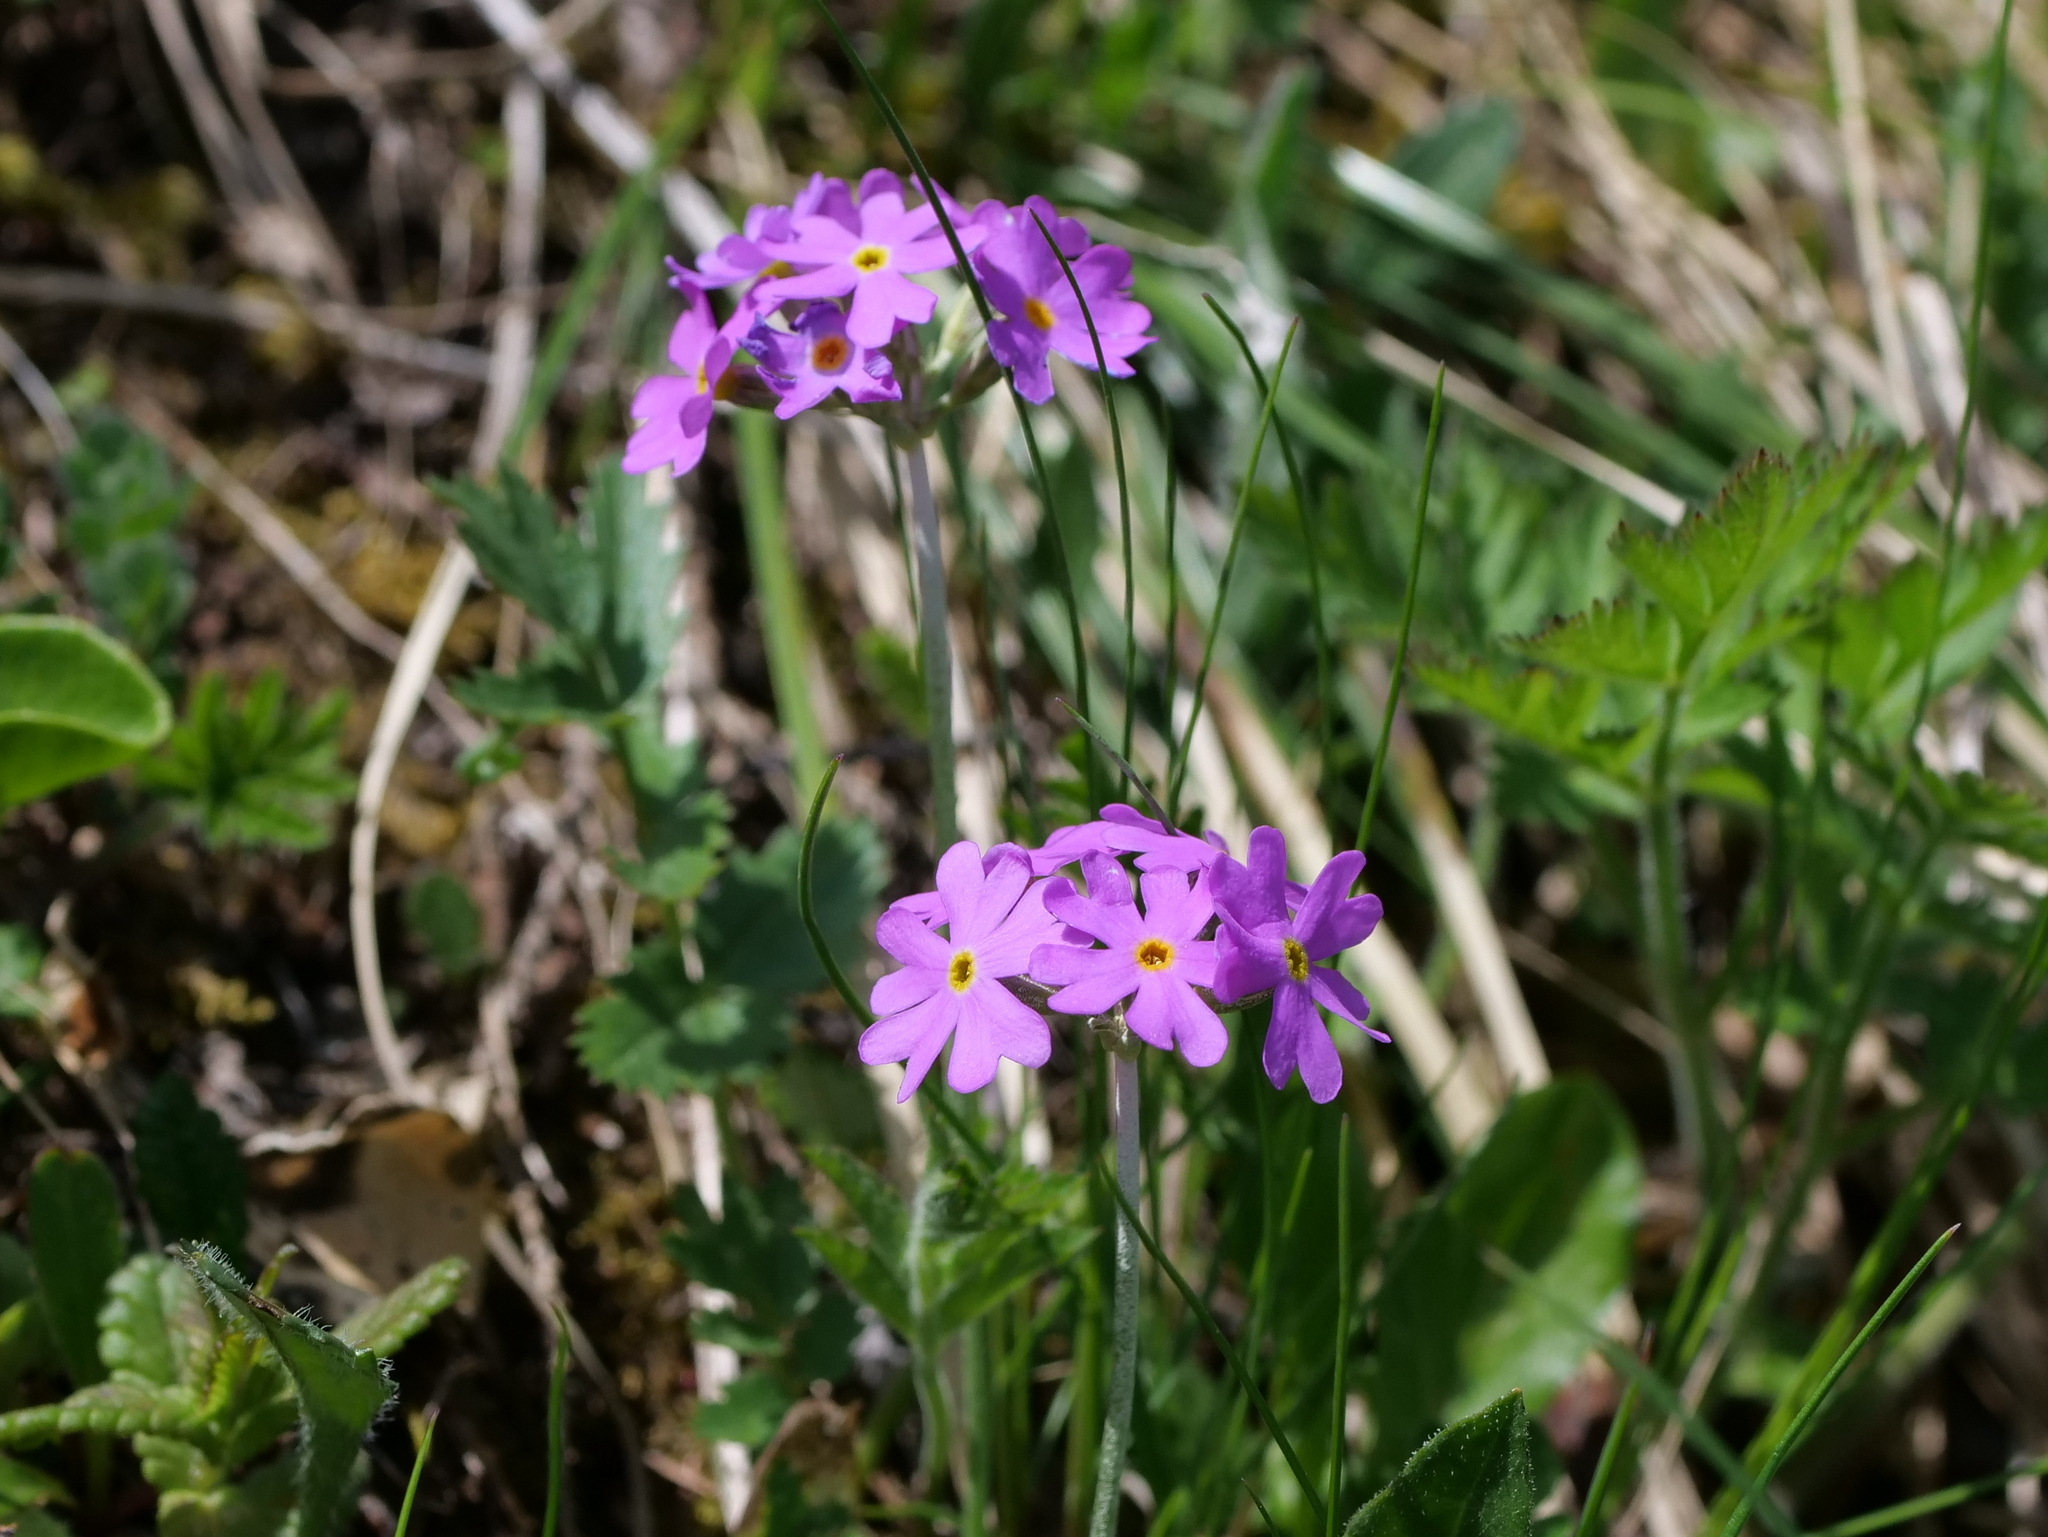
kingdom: Plantae
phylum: Tracheophyta
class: Magnoliopsida
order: Ericales
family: Primulaceae
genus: Primula
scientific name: Primula farinosa
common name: Bird's-eye primrose
